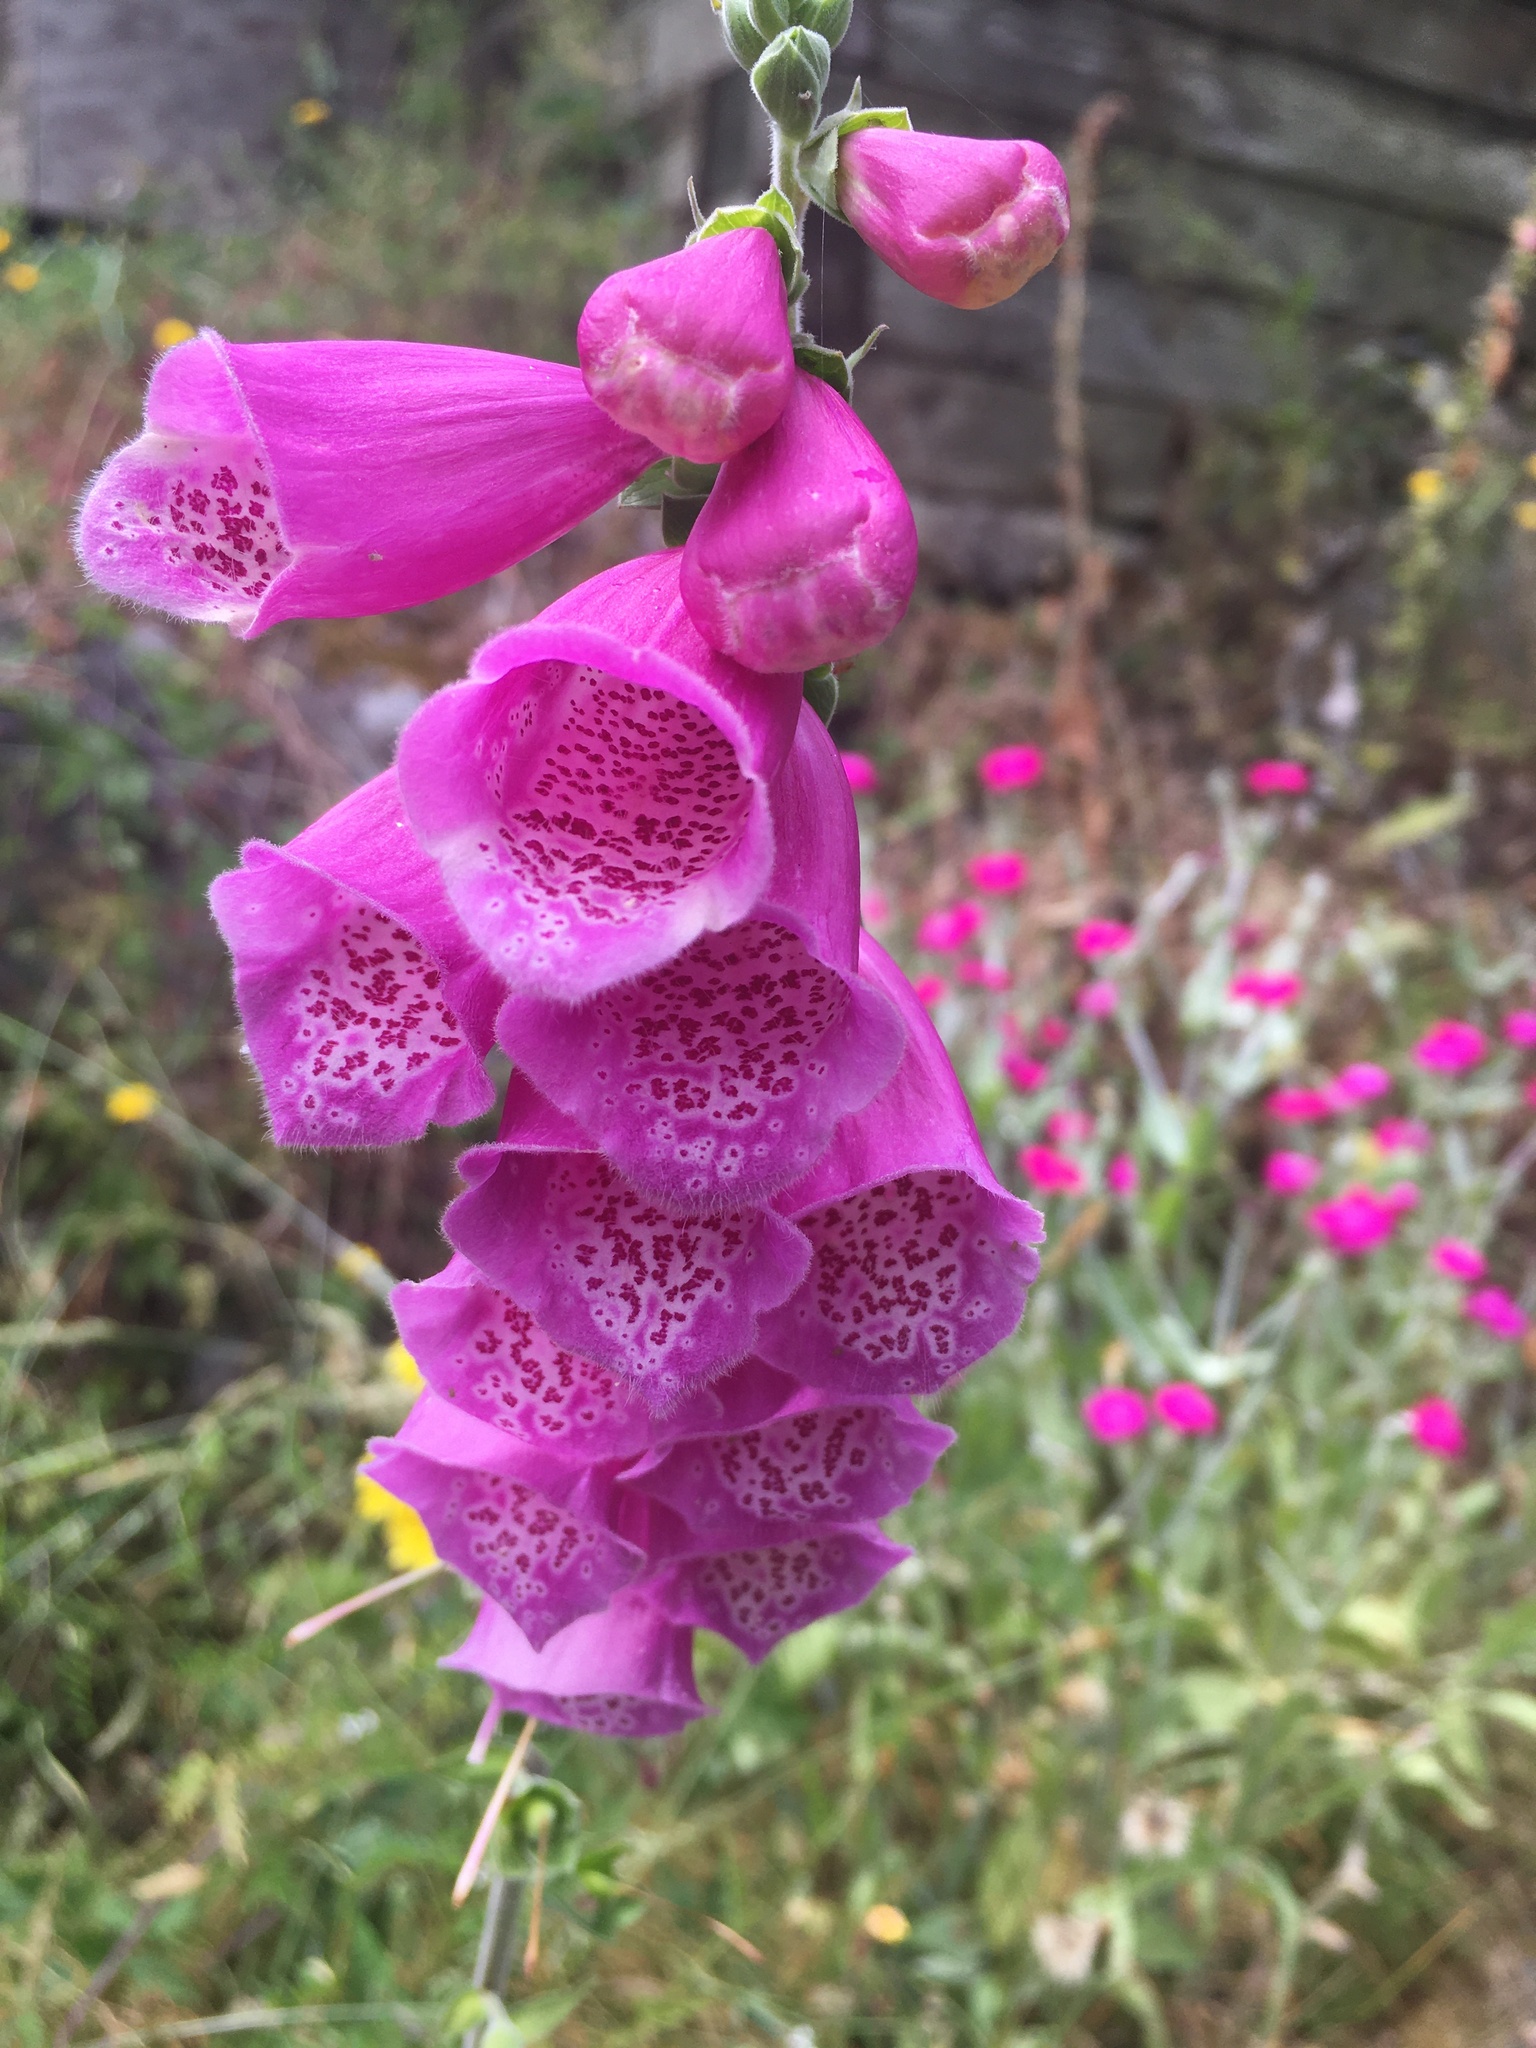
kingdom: Plantae
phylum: Tracheophyta
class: Magnoliopsida
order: Lamiales
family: Plantaginaceae
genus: Digitalis
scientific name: Digitalis purpurea
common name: Foxglove
